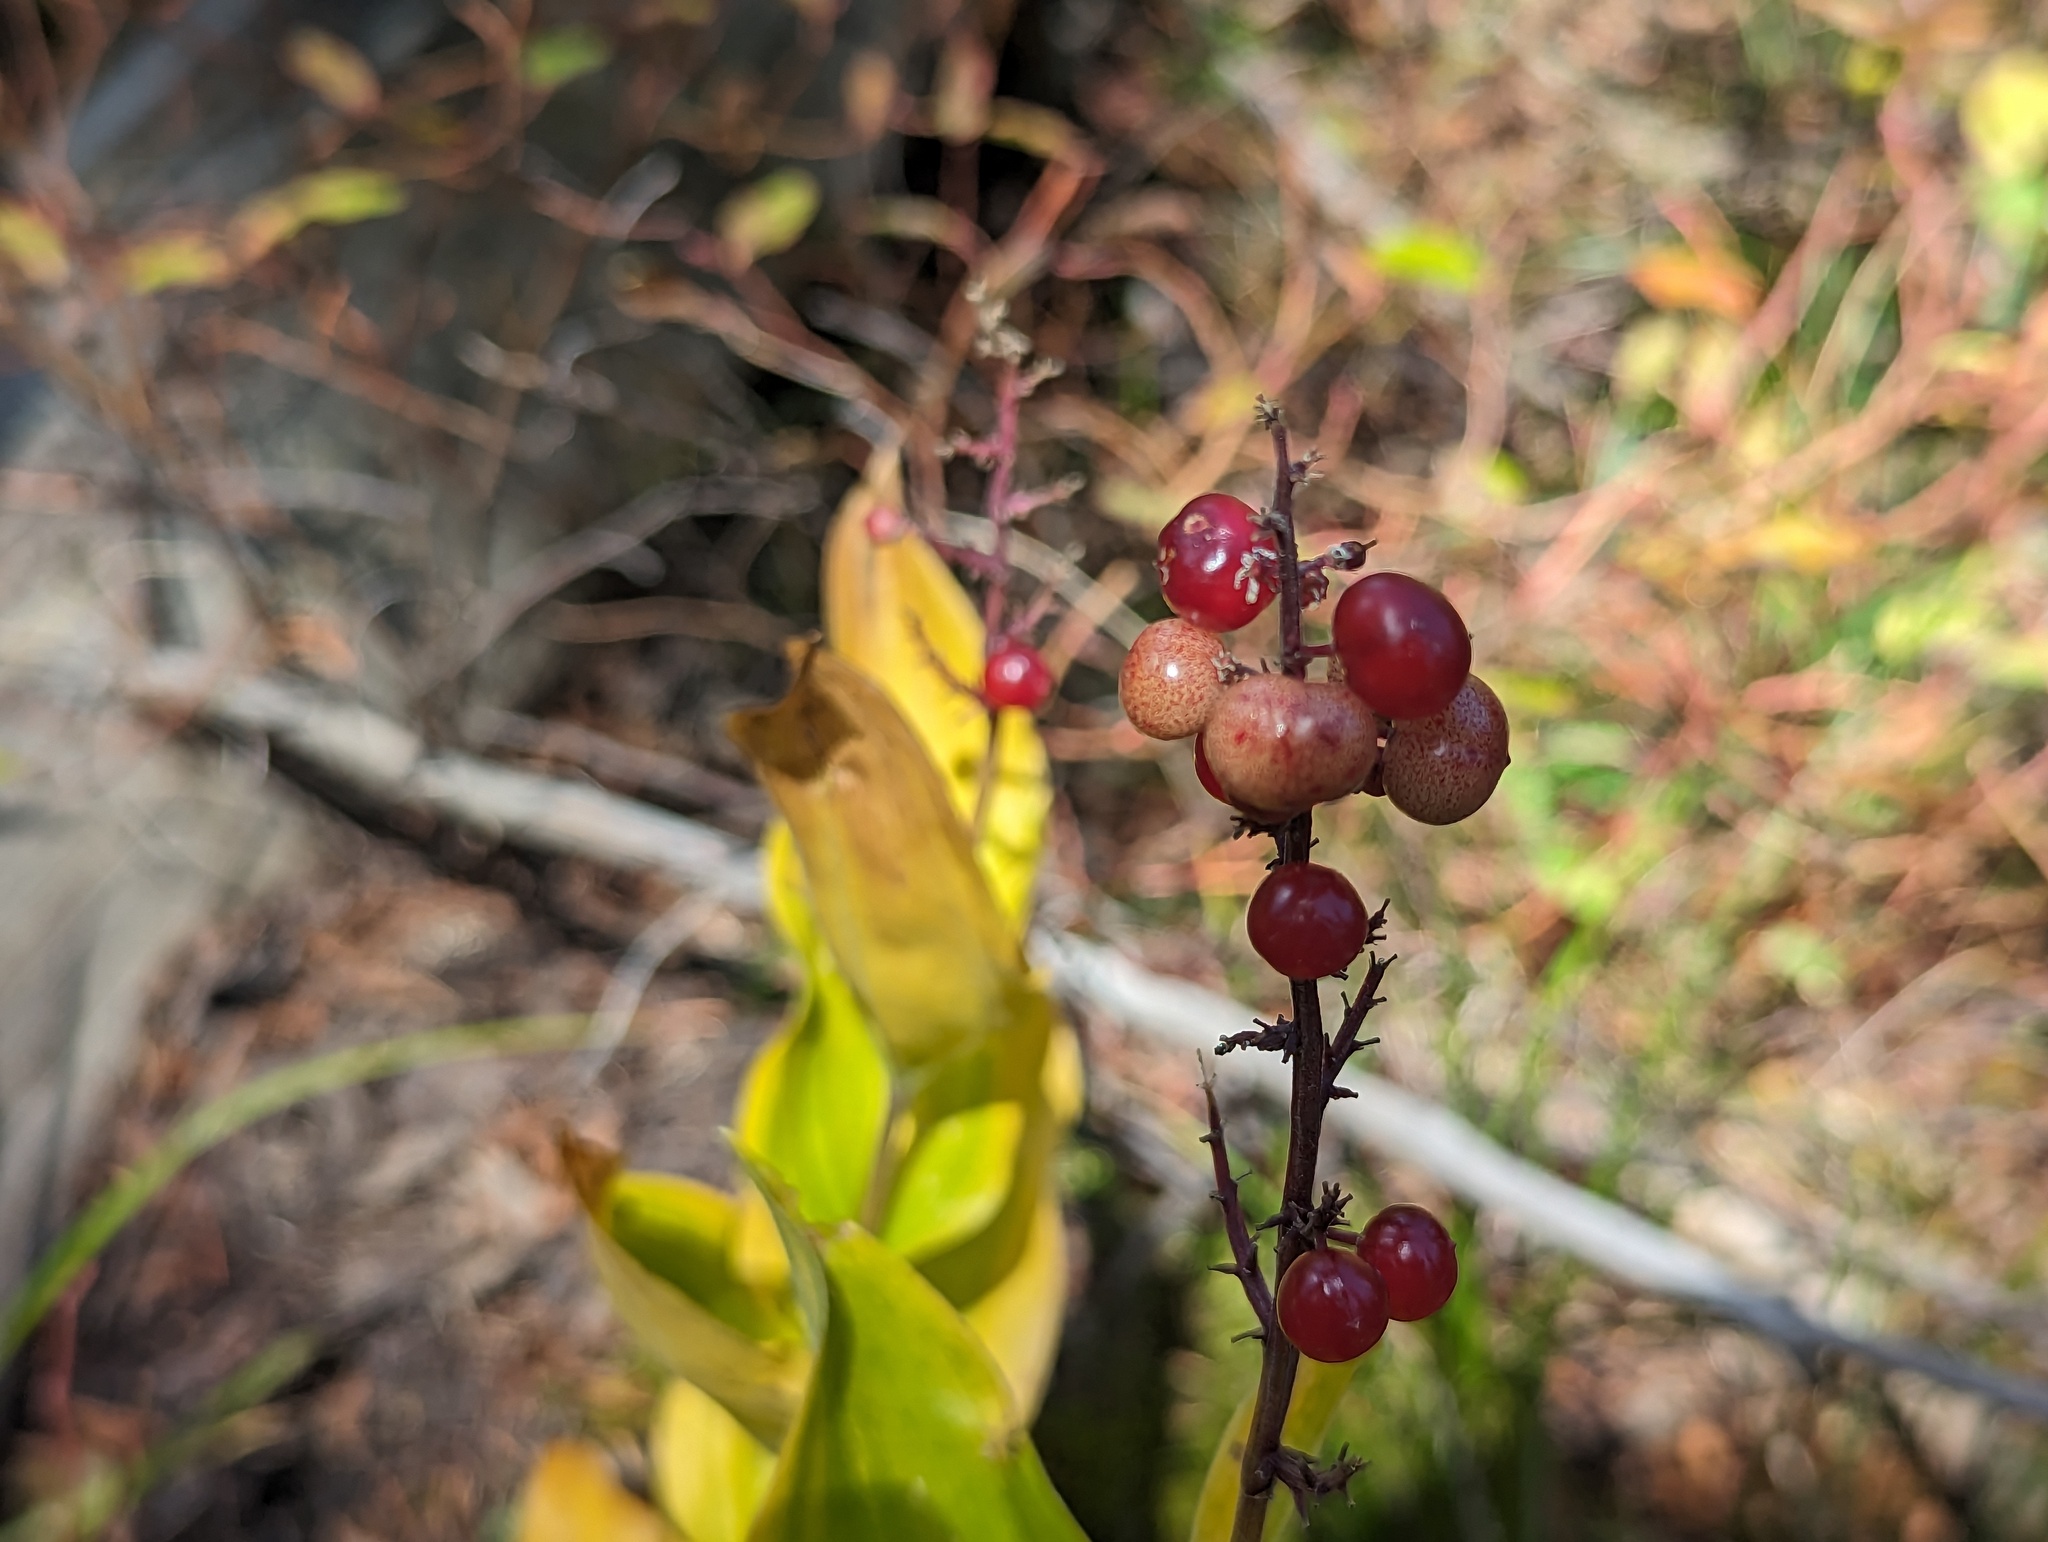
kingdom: Plantae
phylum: Tracheophyta
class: Liliopsida
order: Asparagales
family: Asparagaceae
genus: Maianthemum
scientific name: Maianthemum racemosum
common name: False spikenard
